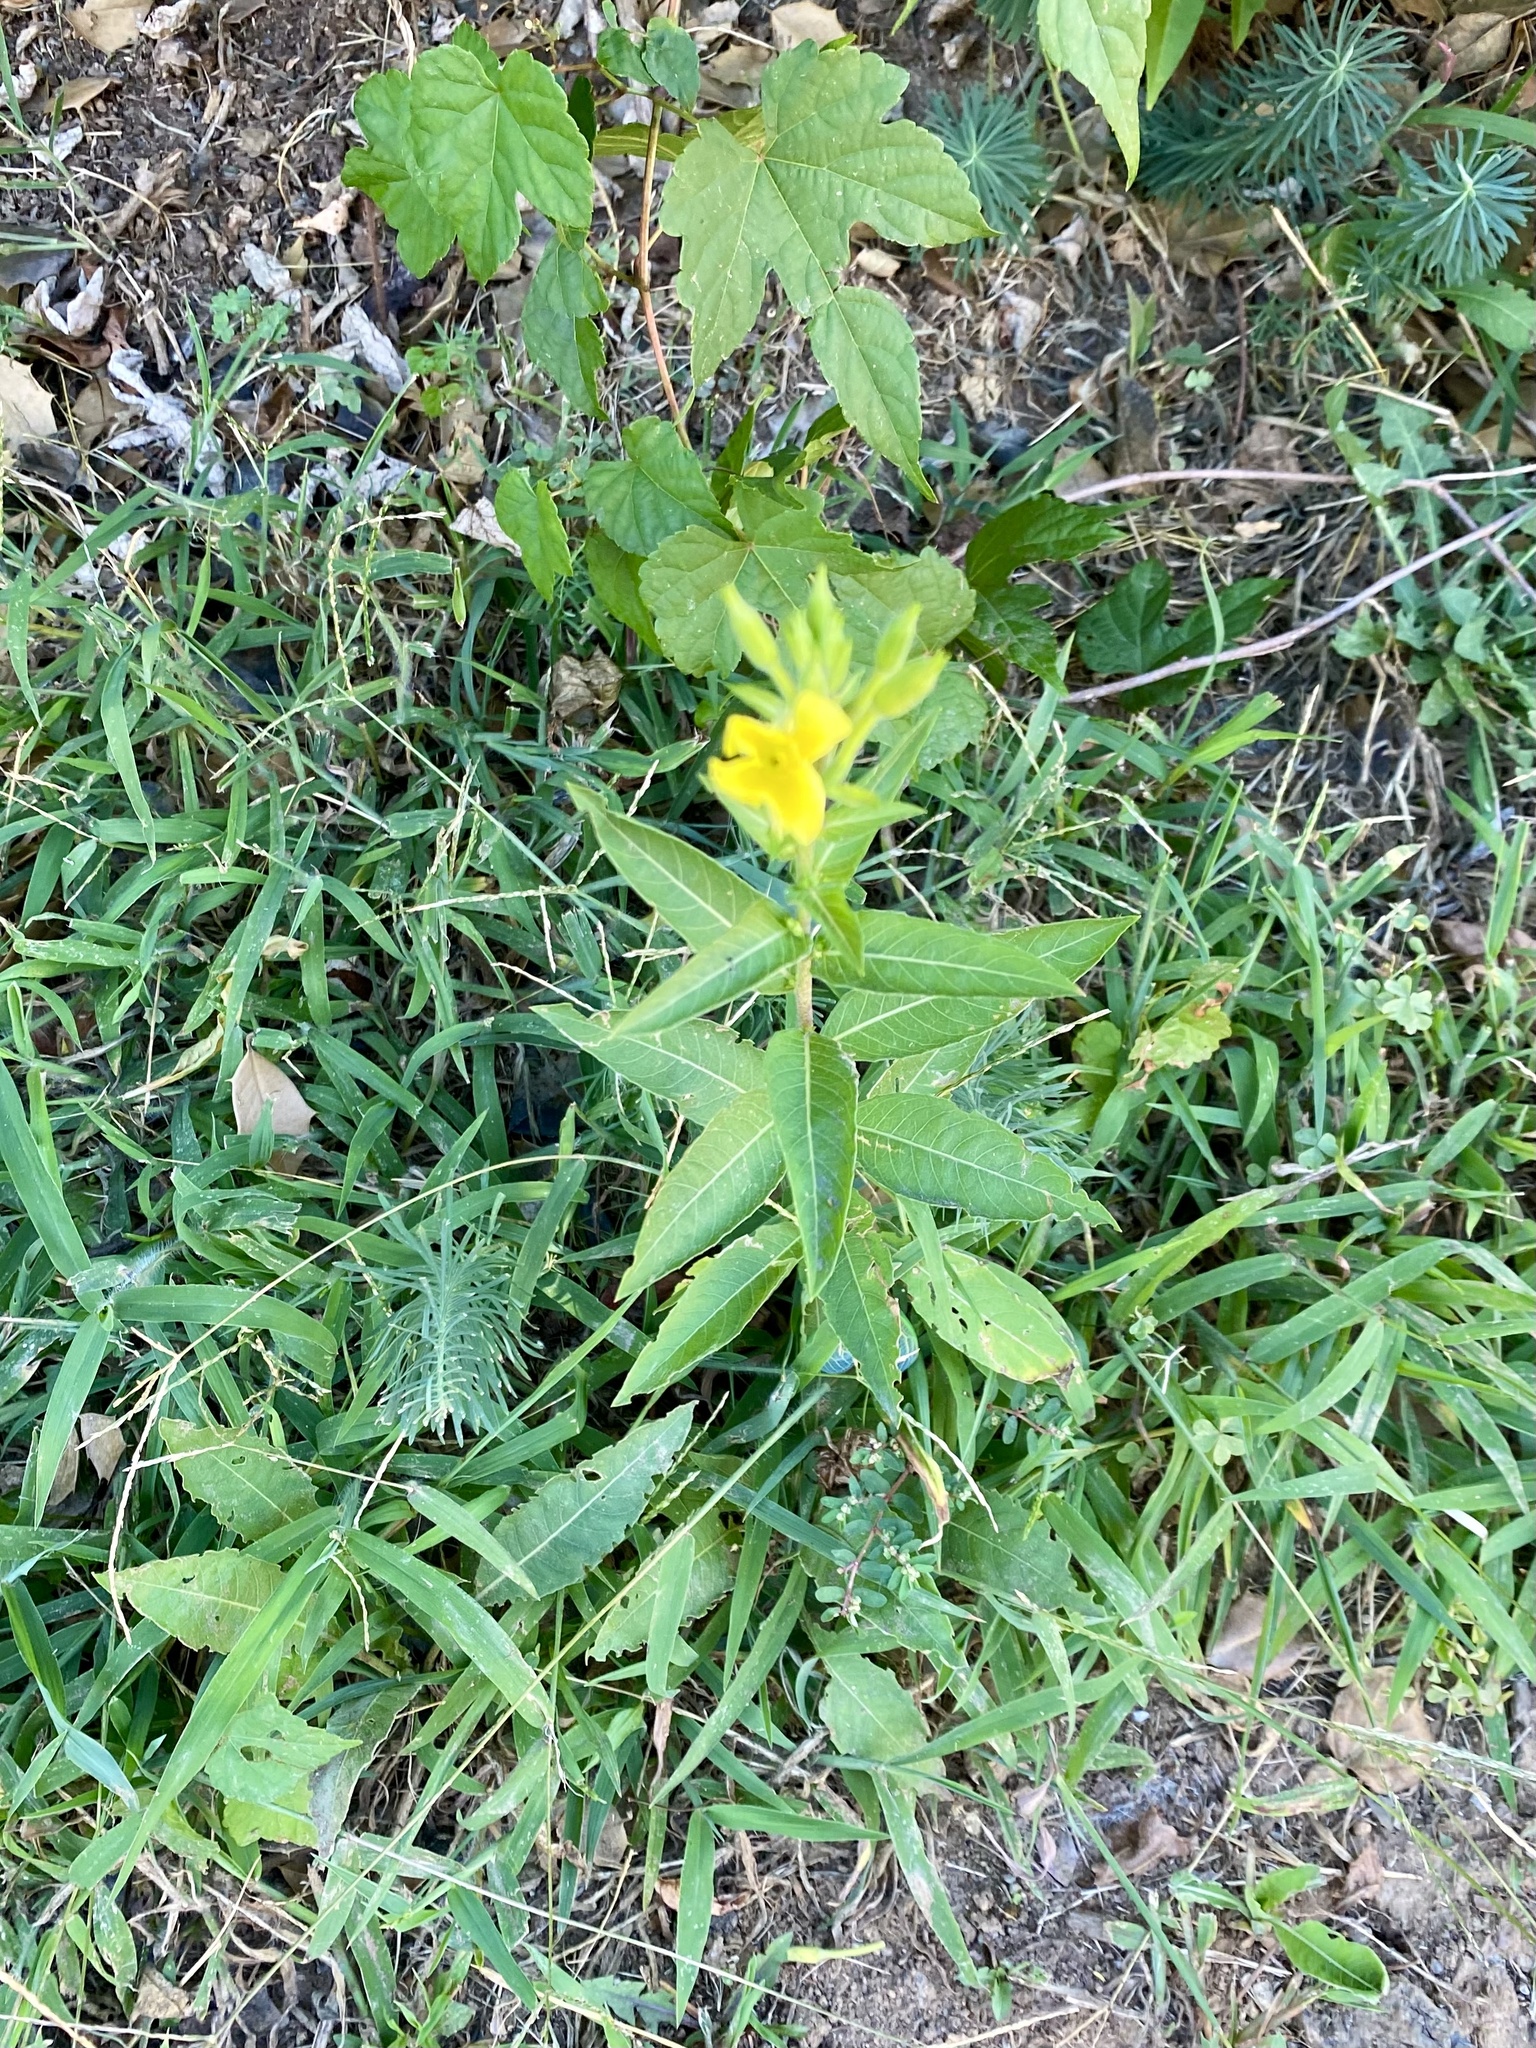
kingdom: Plantae
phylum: Tracheophyta
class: Magnoliopsida
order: Myrtales
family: Onagraceae
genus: Oenothera
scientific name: Oenothera biennis
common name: Common evening-primrose
